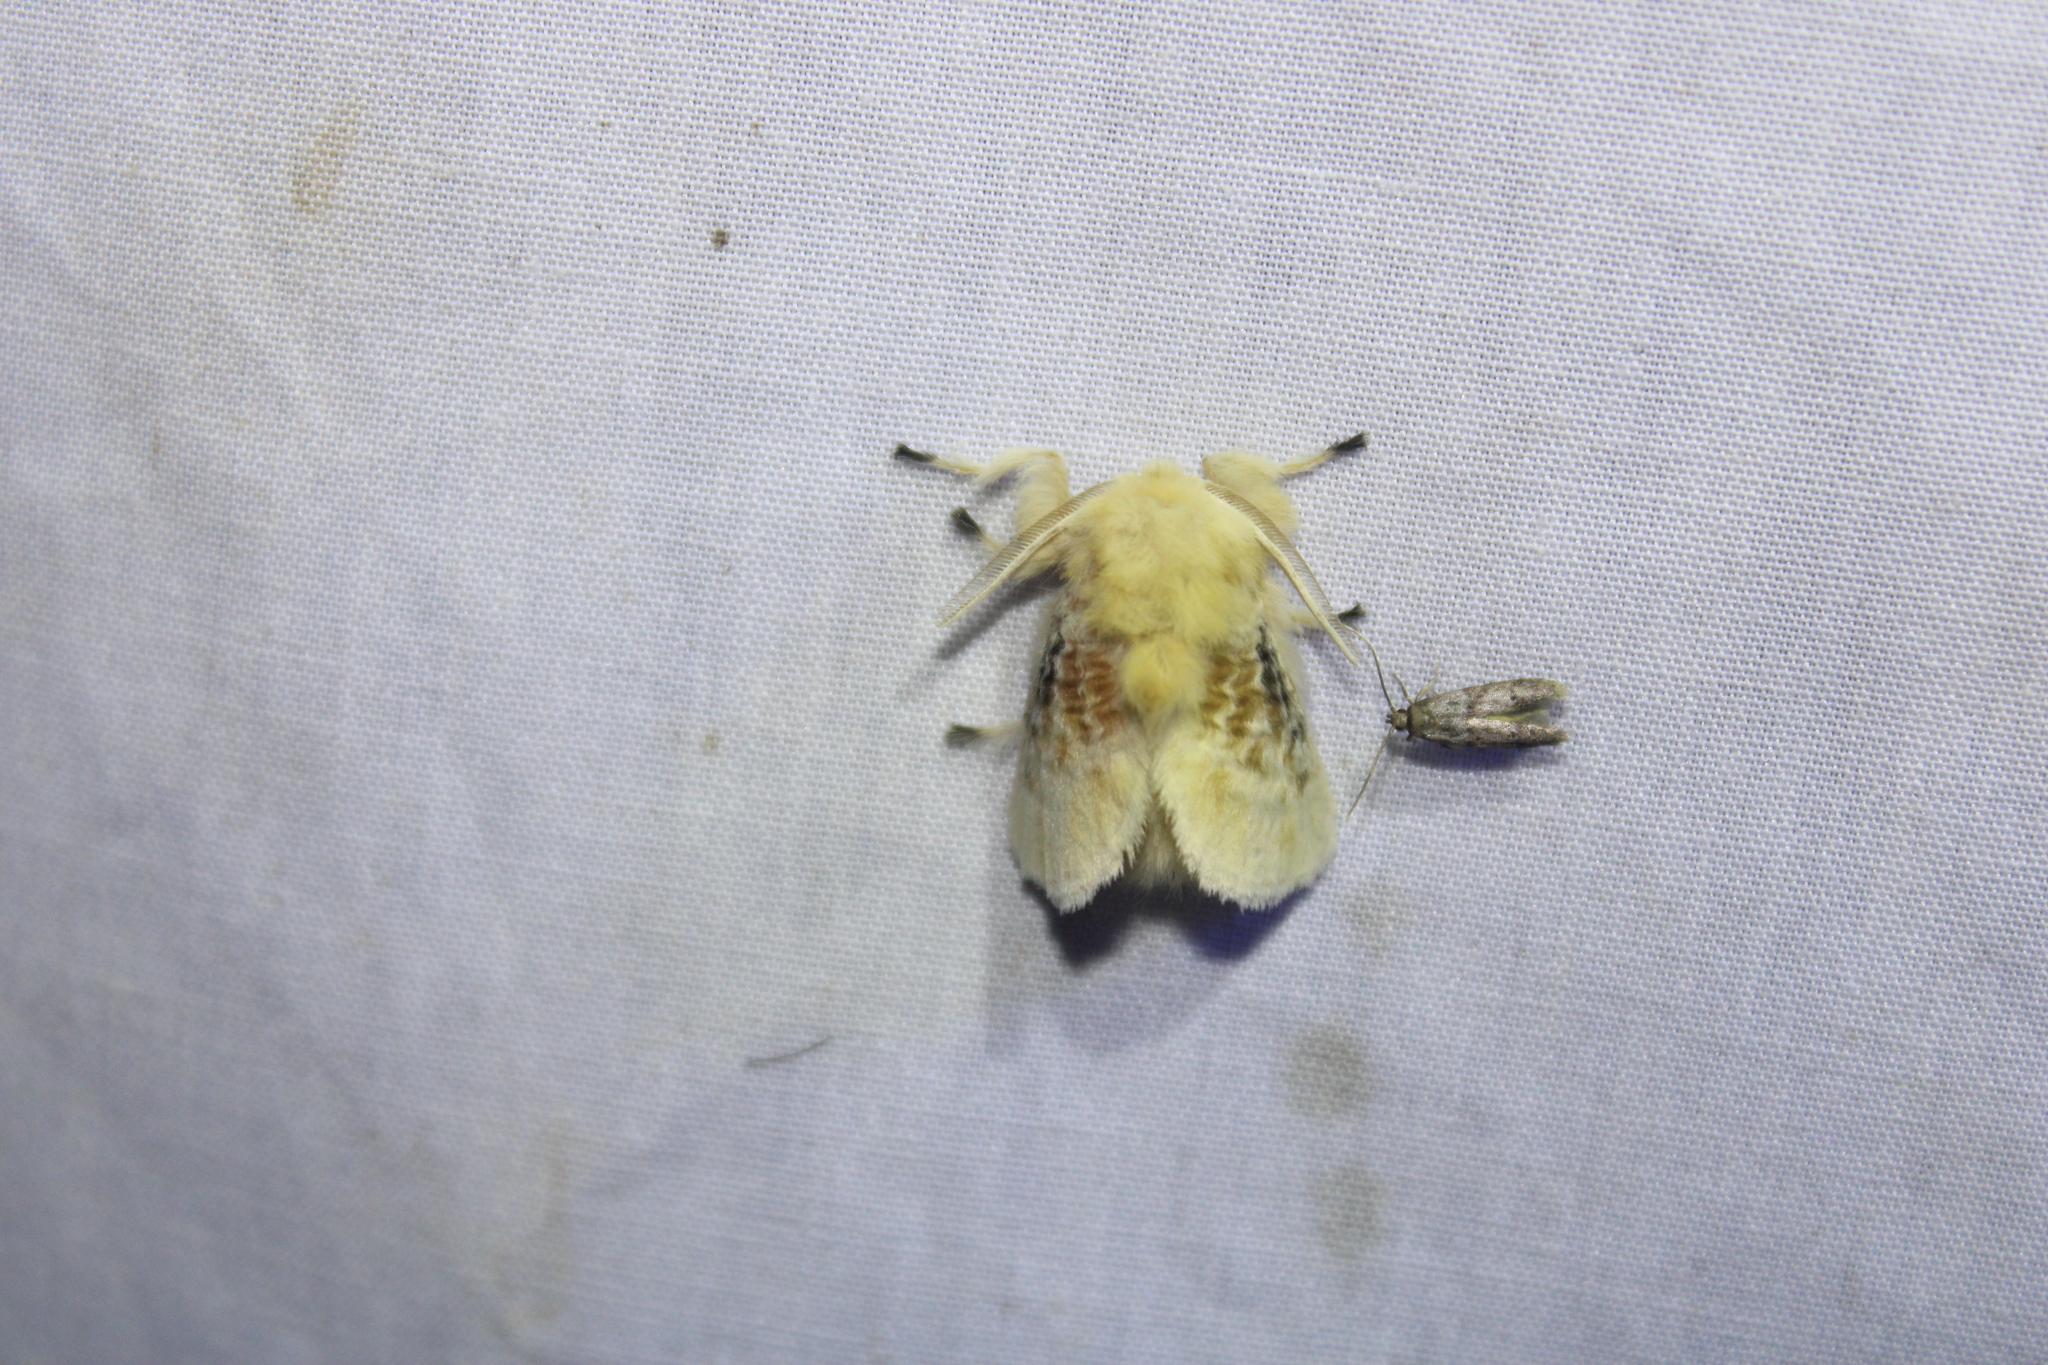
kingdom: Animalia
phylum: Arthropoda
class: Insecta
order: Lepidoptera
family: Megalopygidae
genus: Megalopyge
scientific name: Megalopyge crispata
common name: Black-waved flannel moth
